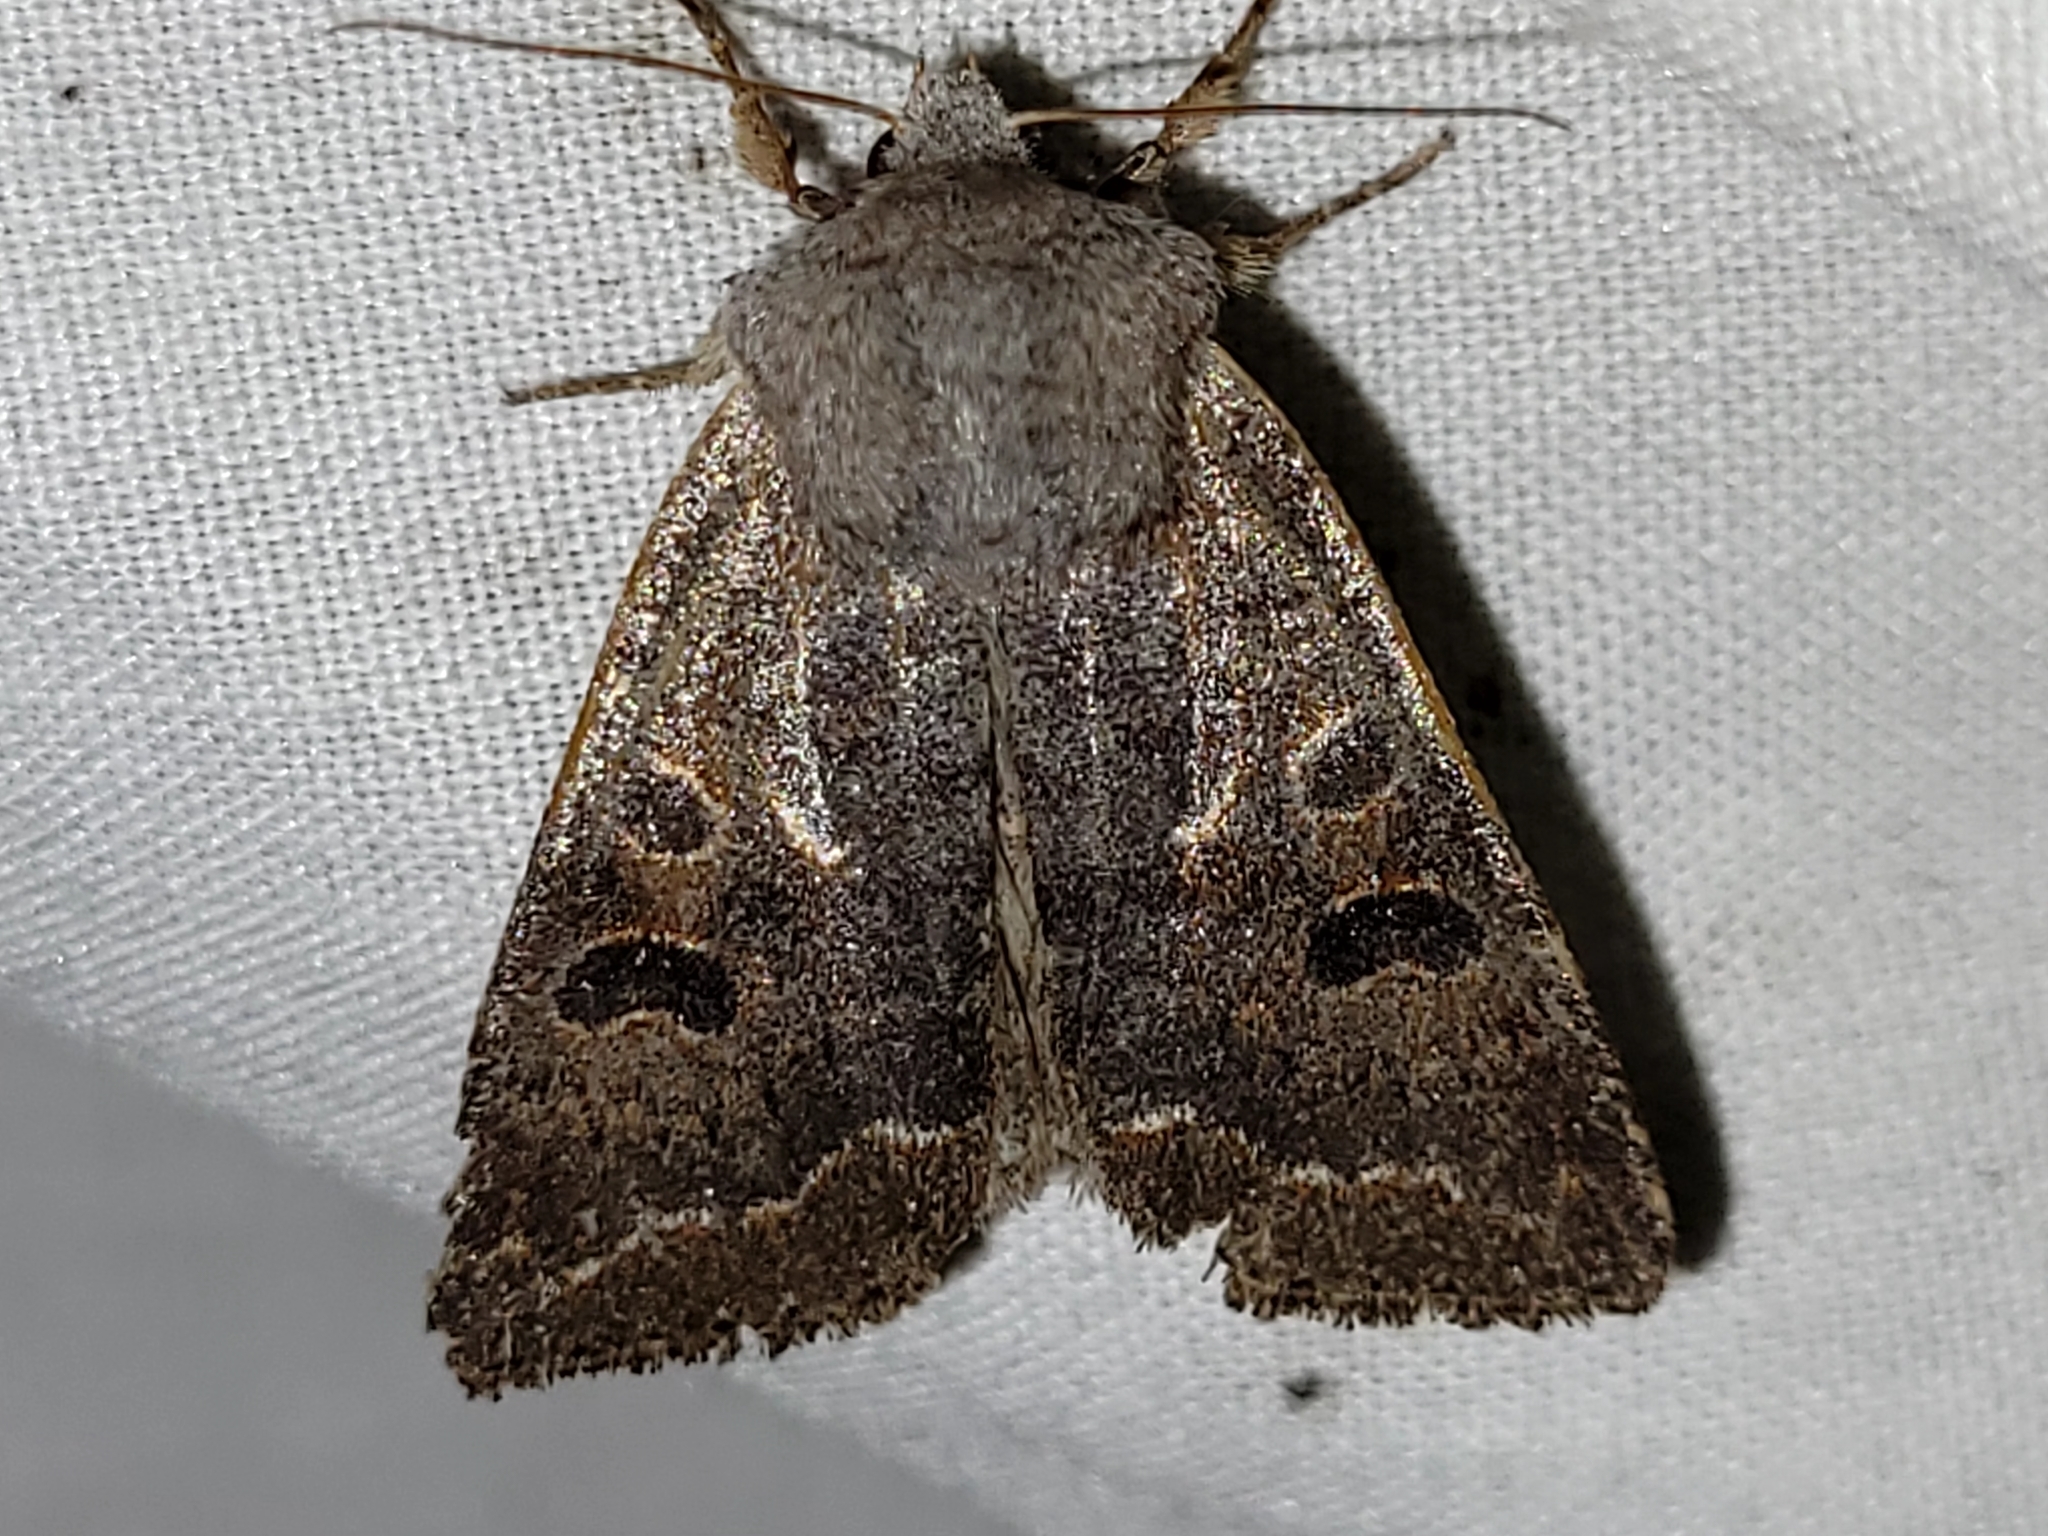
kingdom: Animalia
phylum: Arthropoda
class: Insecta
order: Lepidoptera
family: Noctuidae
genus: Orthosia
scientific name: Orthosia hibisci
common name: Green fruitworm
